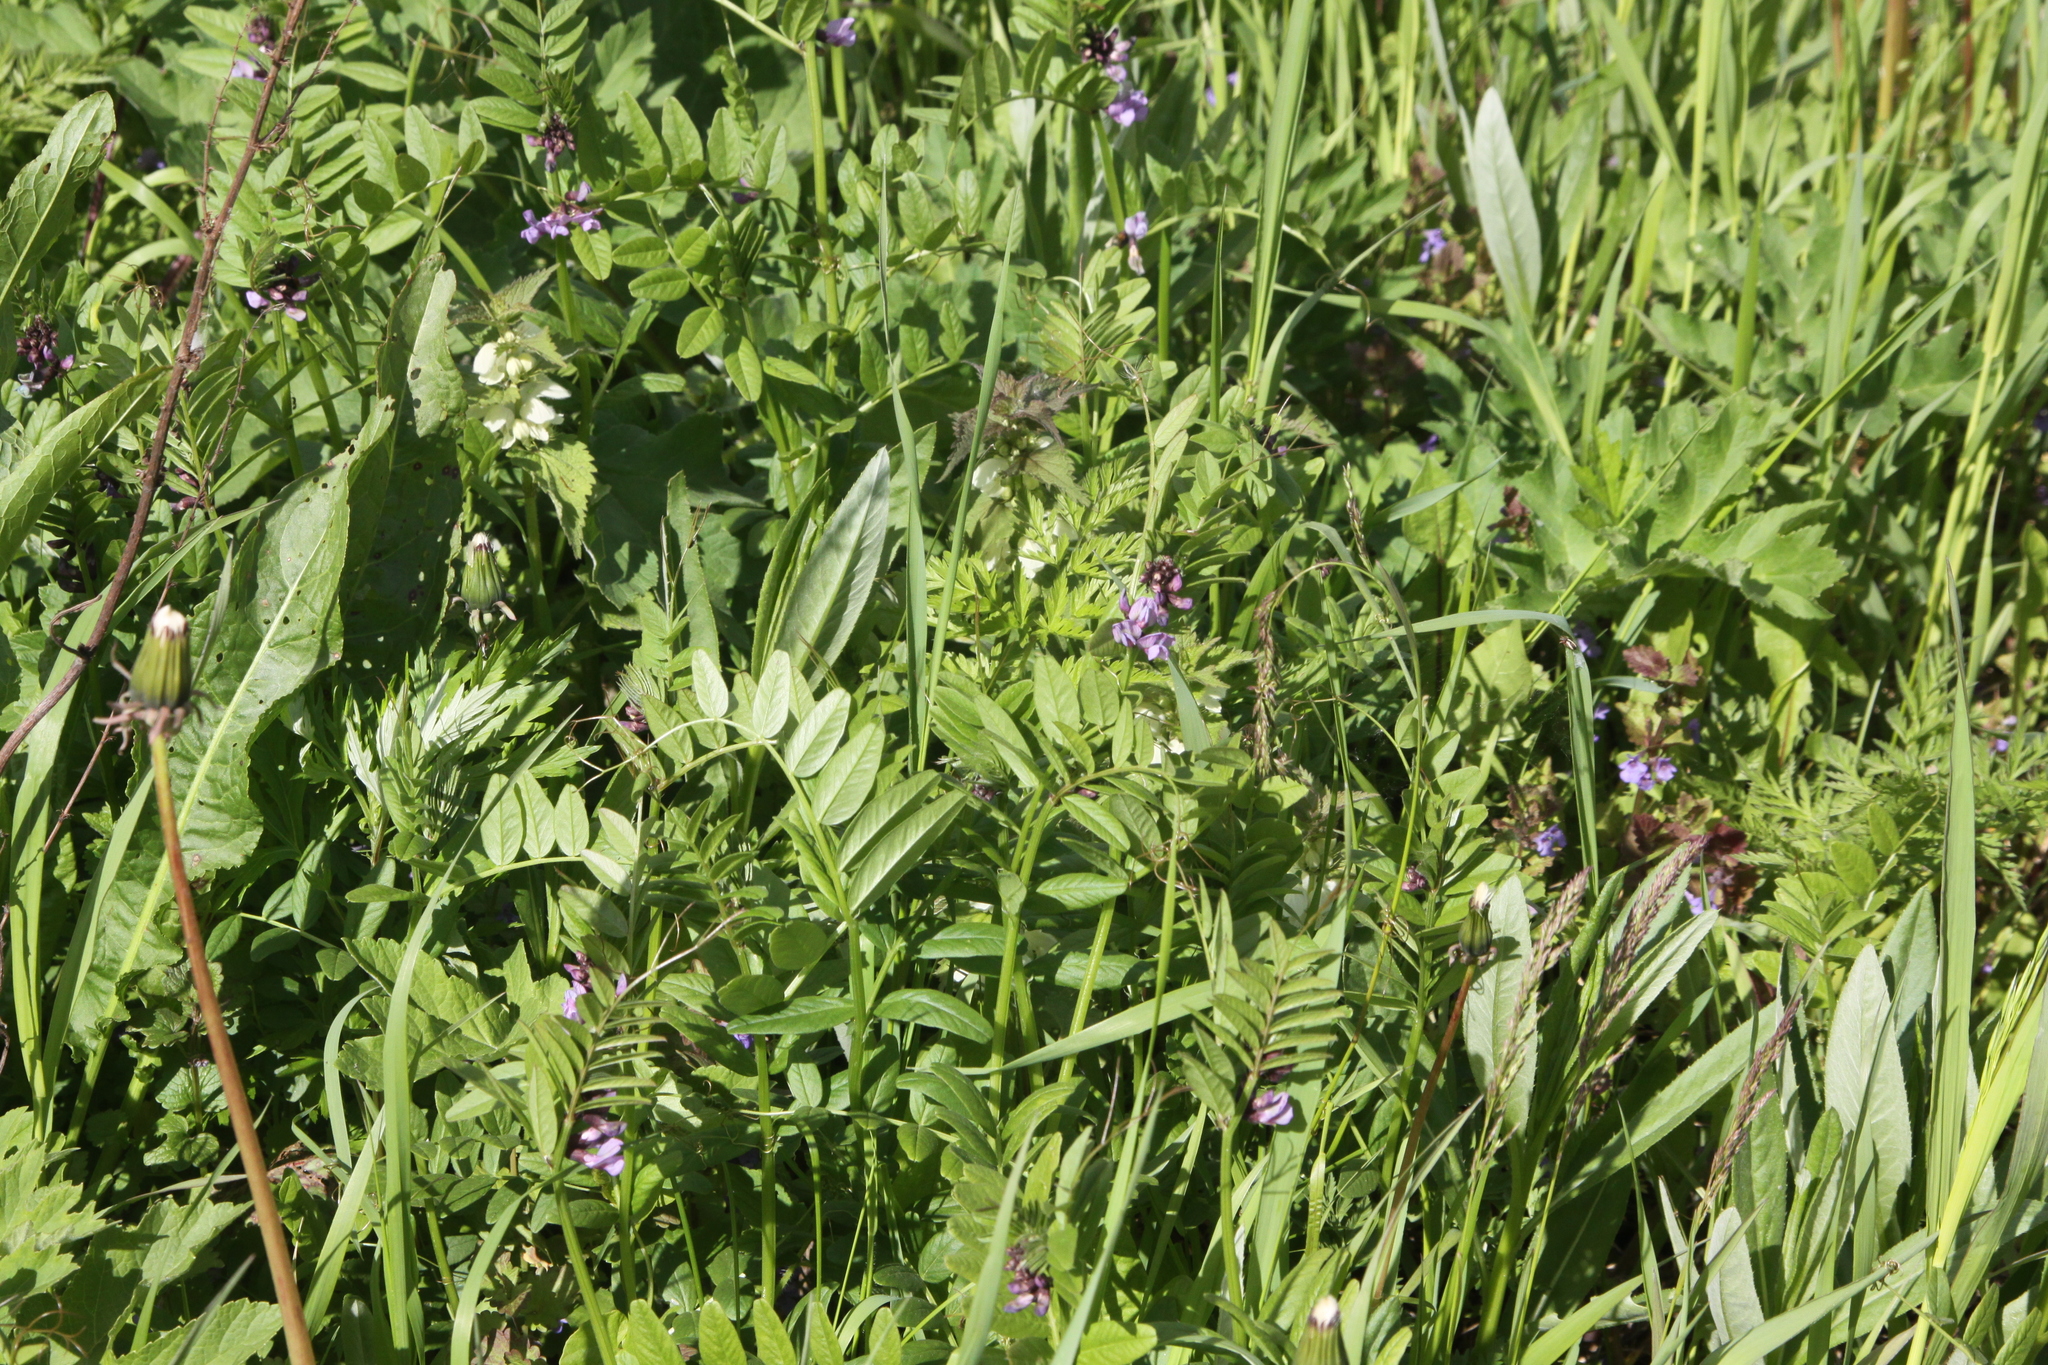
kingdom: Plantae
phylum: Tracheophyta
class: Magnoliopsida
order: Fabales
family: Fabaceae
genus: Vicia
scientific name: Vicia sepium
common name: Bush vetch
